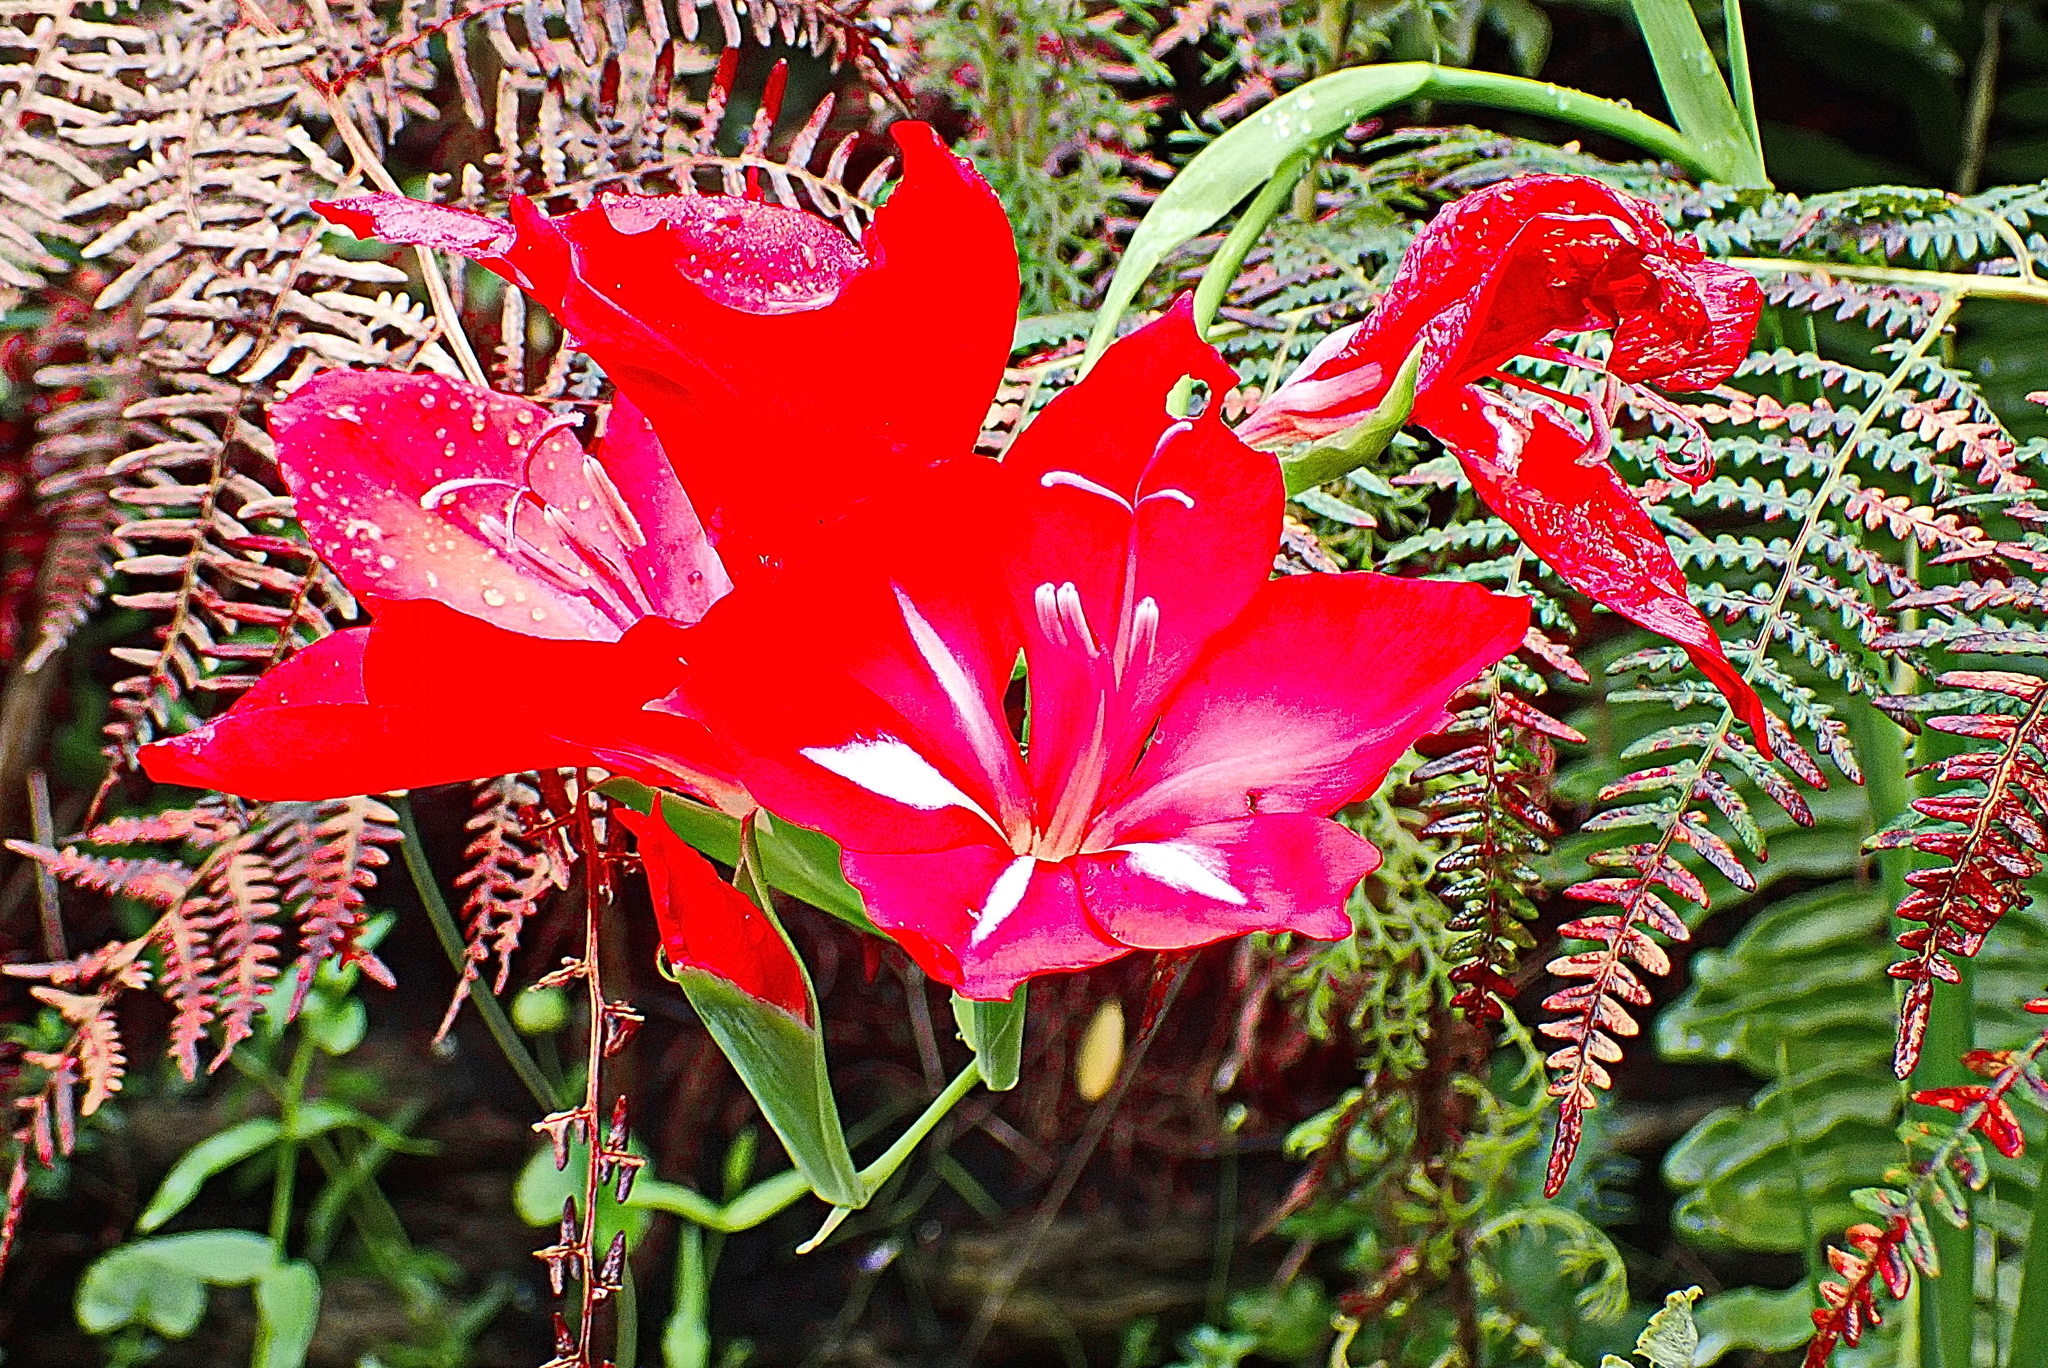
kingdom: Plantae
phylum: Tracheophyta
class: Liliopsida
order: Asparagales
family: Iridaceae
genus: Gladiolus
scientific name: Gladiolus sempervirens
